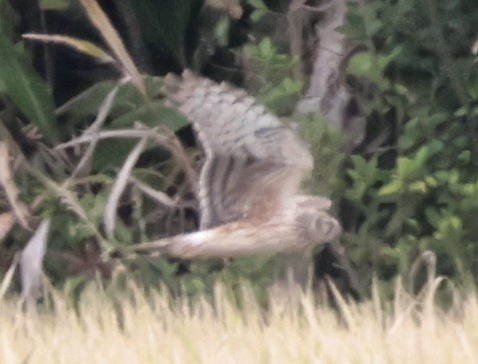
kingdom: Animalia
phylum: Chordata
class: Aves
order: Accipitriformes
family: Accipitridae
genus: Circus
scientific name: Circus cyaneus
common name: Hen harrier
